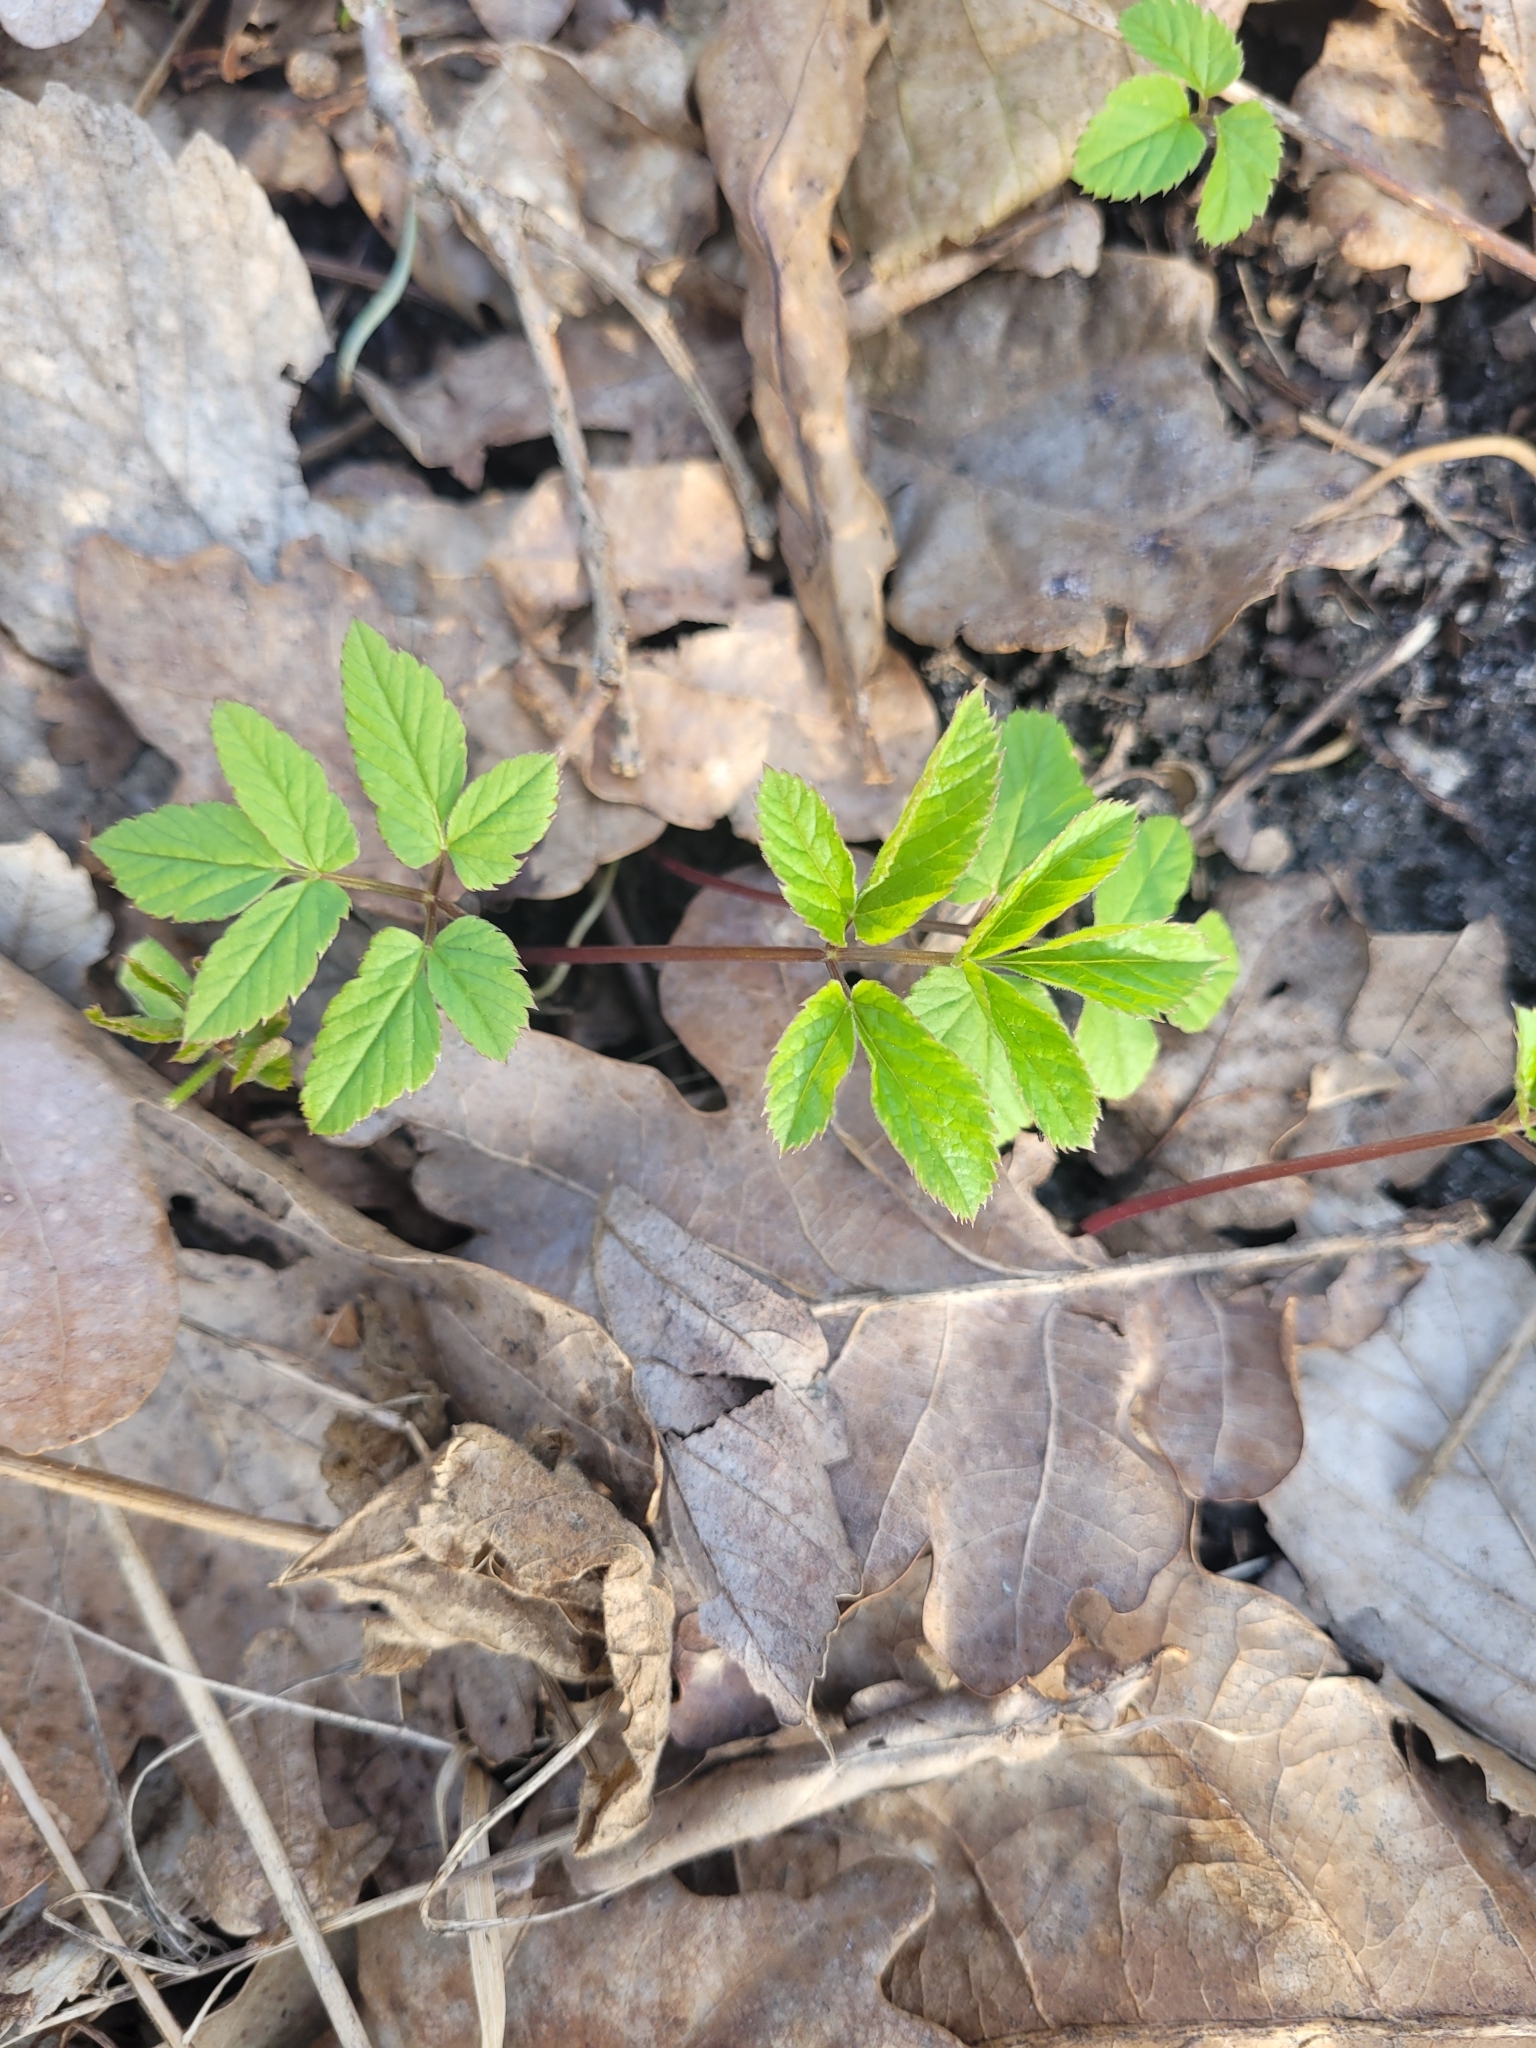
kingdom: Plantae
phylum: Tracheophyta
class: Magnoliopsida
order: Apiales
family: Apiaceae
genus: Aegopodium
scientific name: Aegopodium podagraria
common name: Ground-elder
